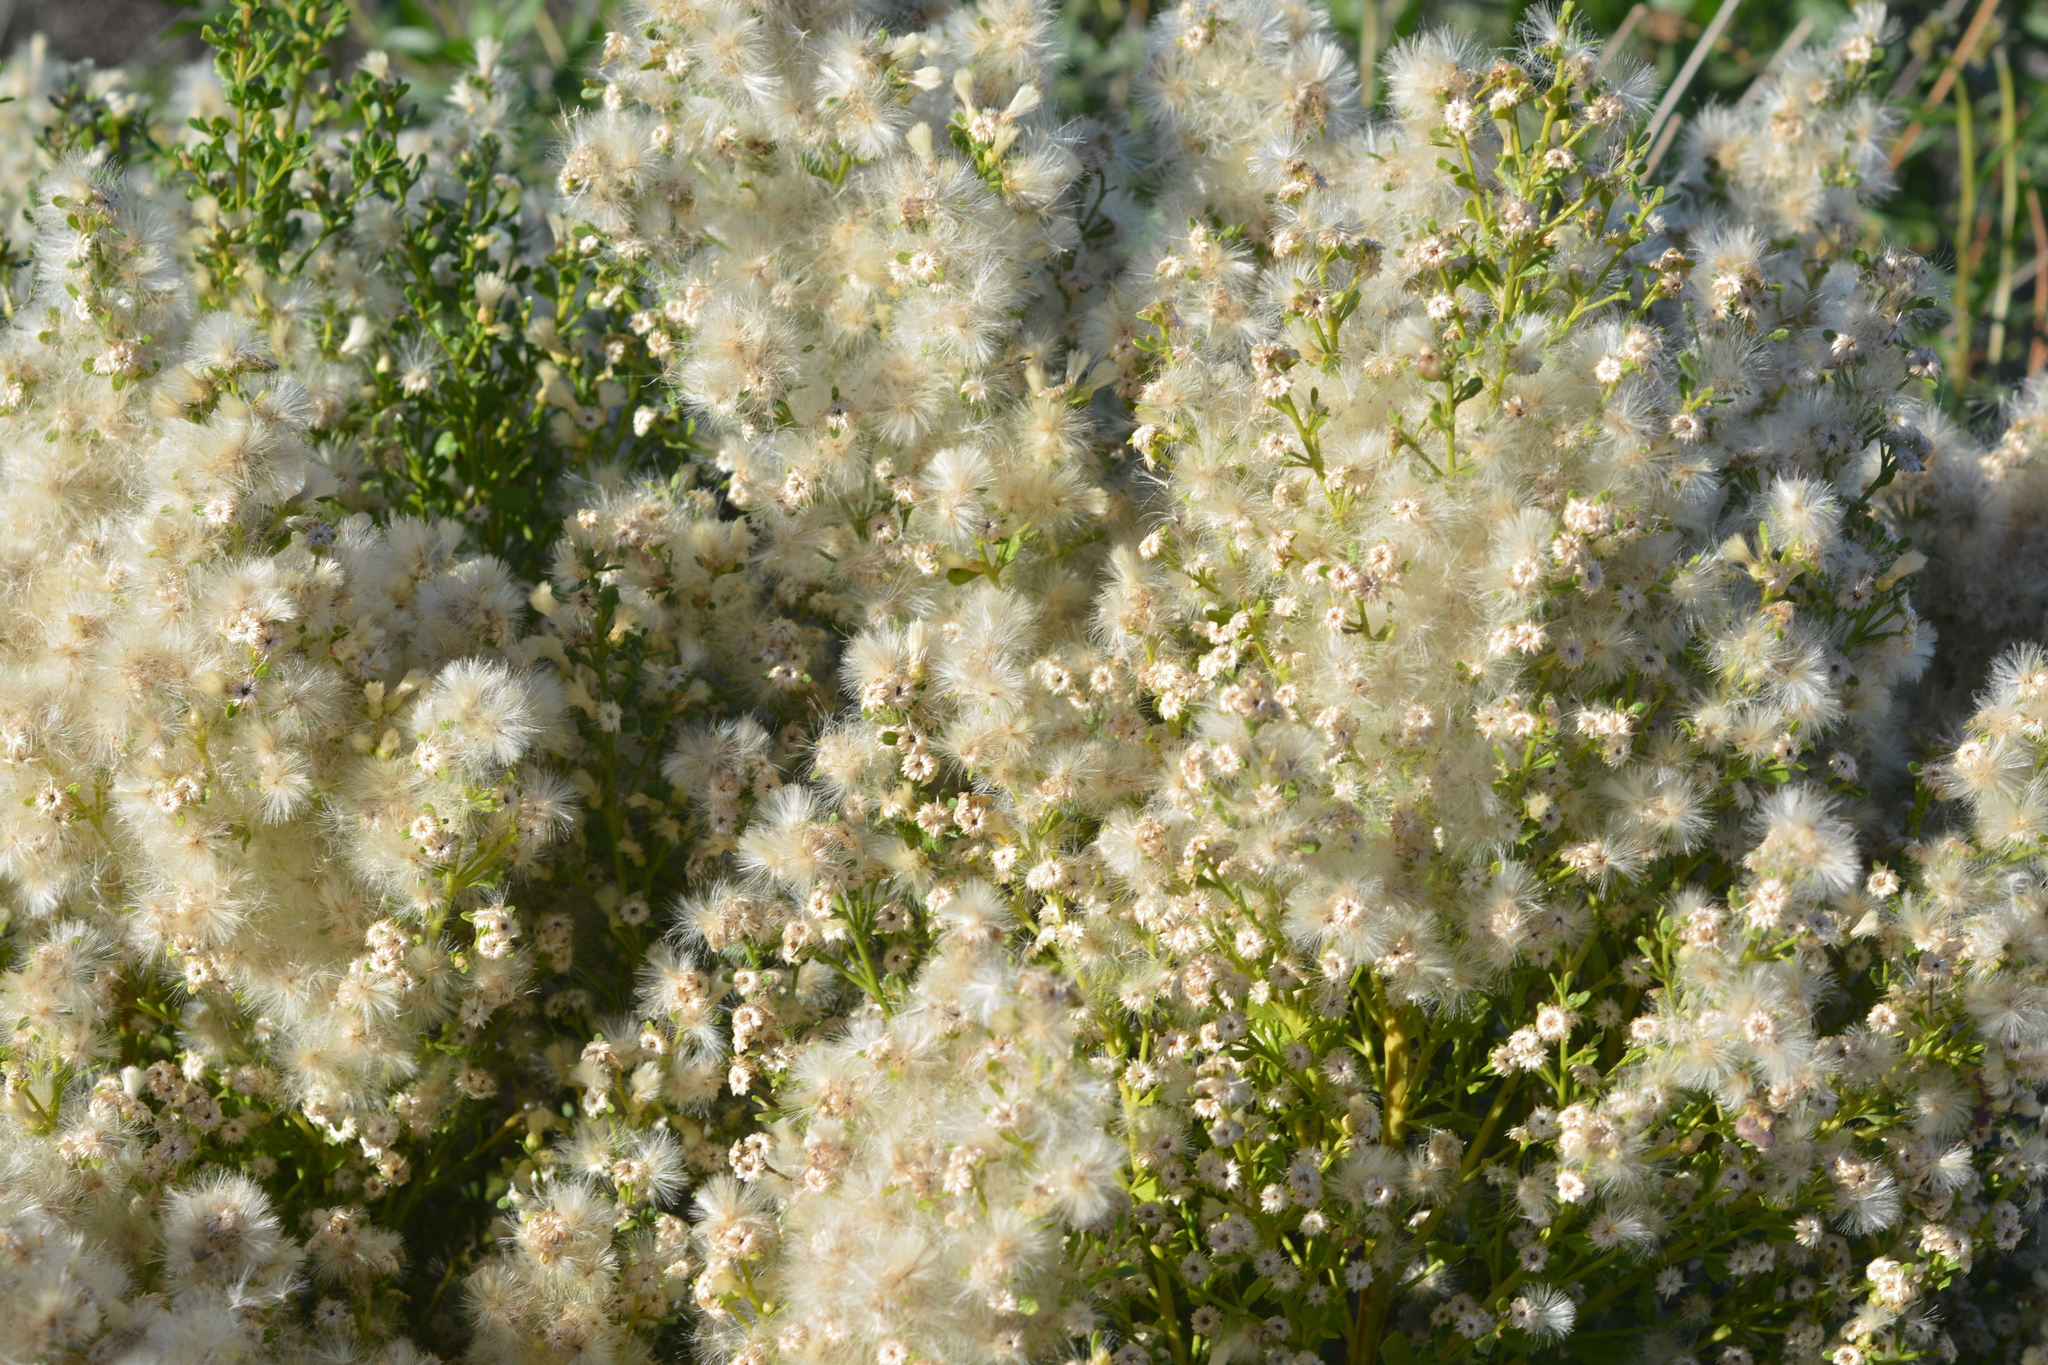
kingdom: Plantae
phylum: Tracheophyta
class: Magnoliopsida
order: Asterales
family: Asteraceae
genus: Baccharis
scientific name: Baccharis pilularis
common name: Coyotebrush
